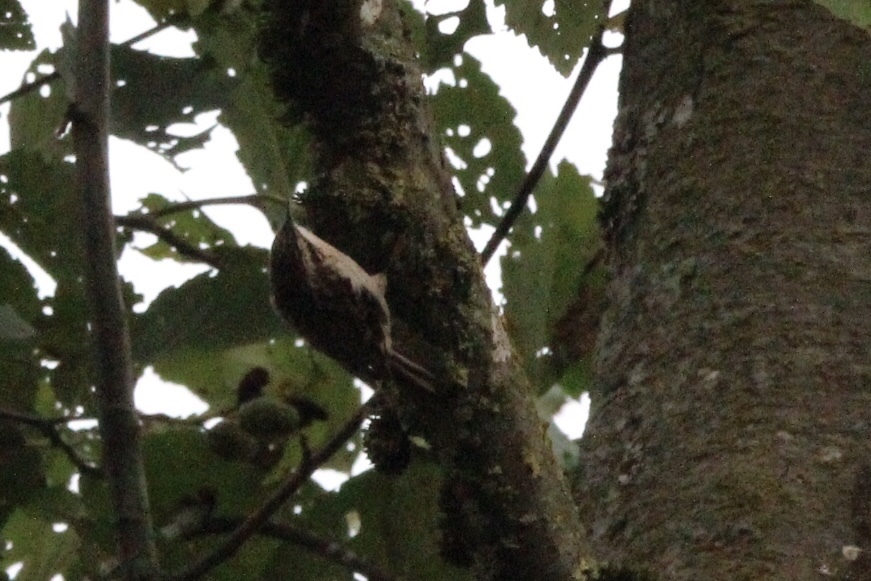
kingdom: Animalia
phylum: Chordata
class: Aves
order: Passeriformes
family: Certhiidae
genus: Certhia
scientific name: Certhia americana
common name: Brown creeper
